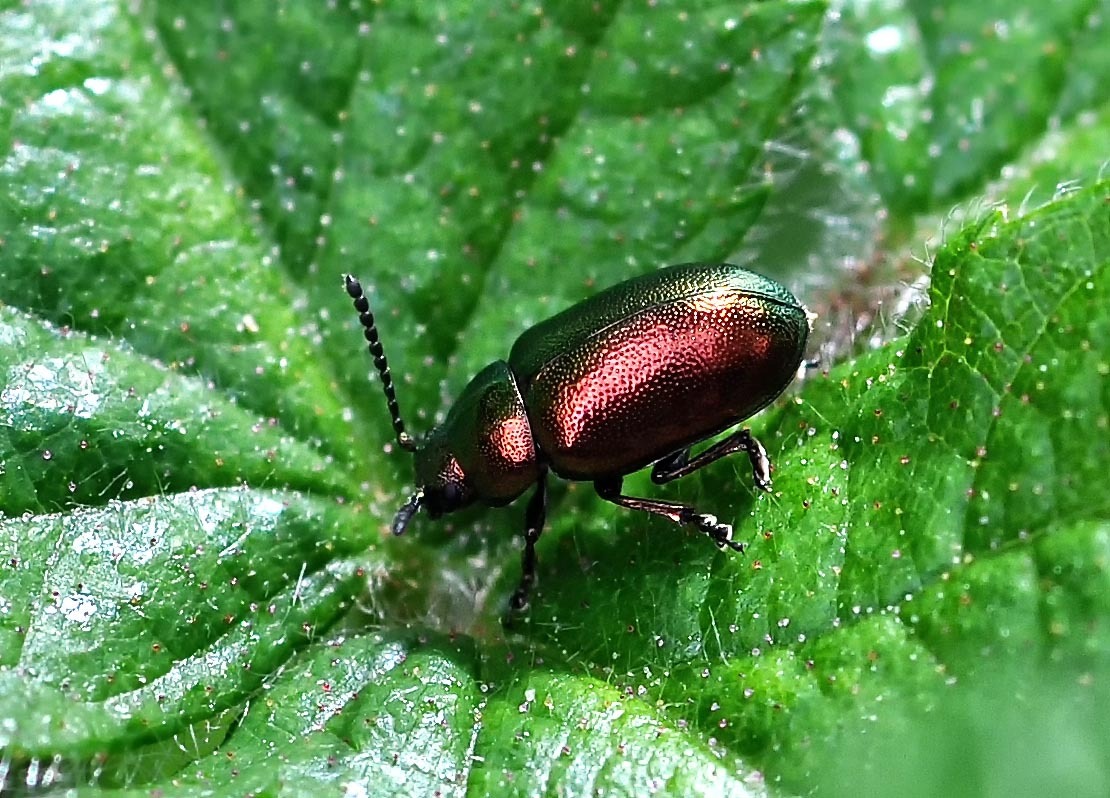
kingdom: Animalia
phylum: Arthropoda
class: Insecta
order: Coleoptera
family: Chrysomelidae
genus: Gastrophysa
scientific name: Gastrophysa viridula
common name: Green dock beetle
